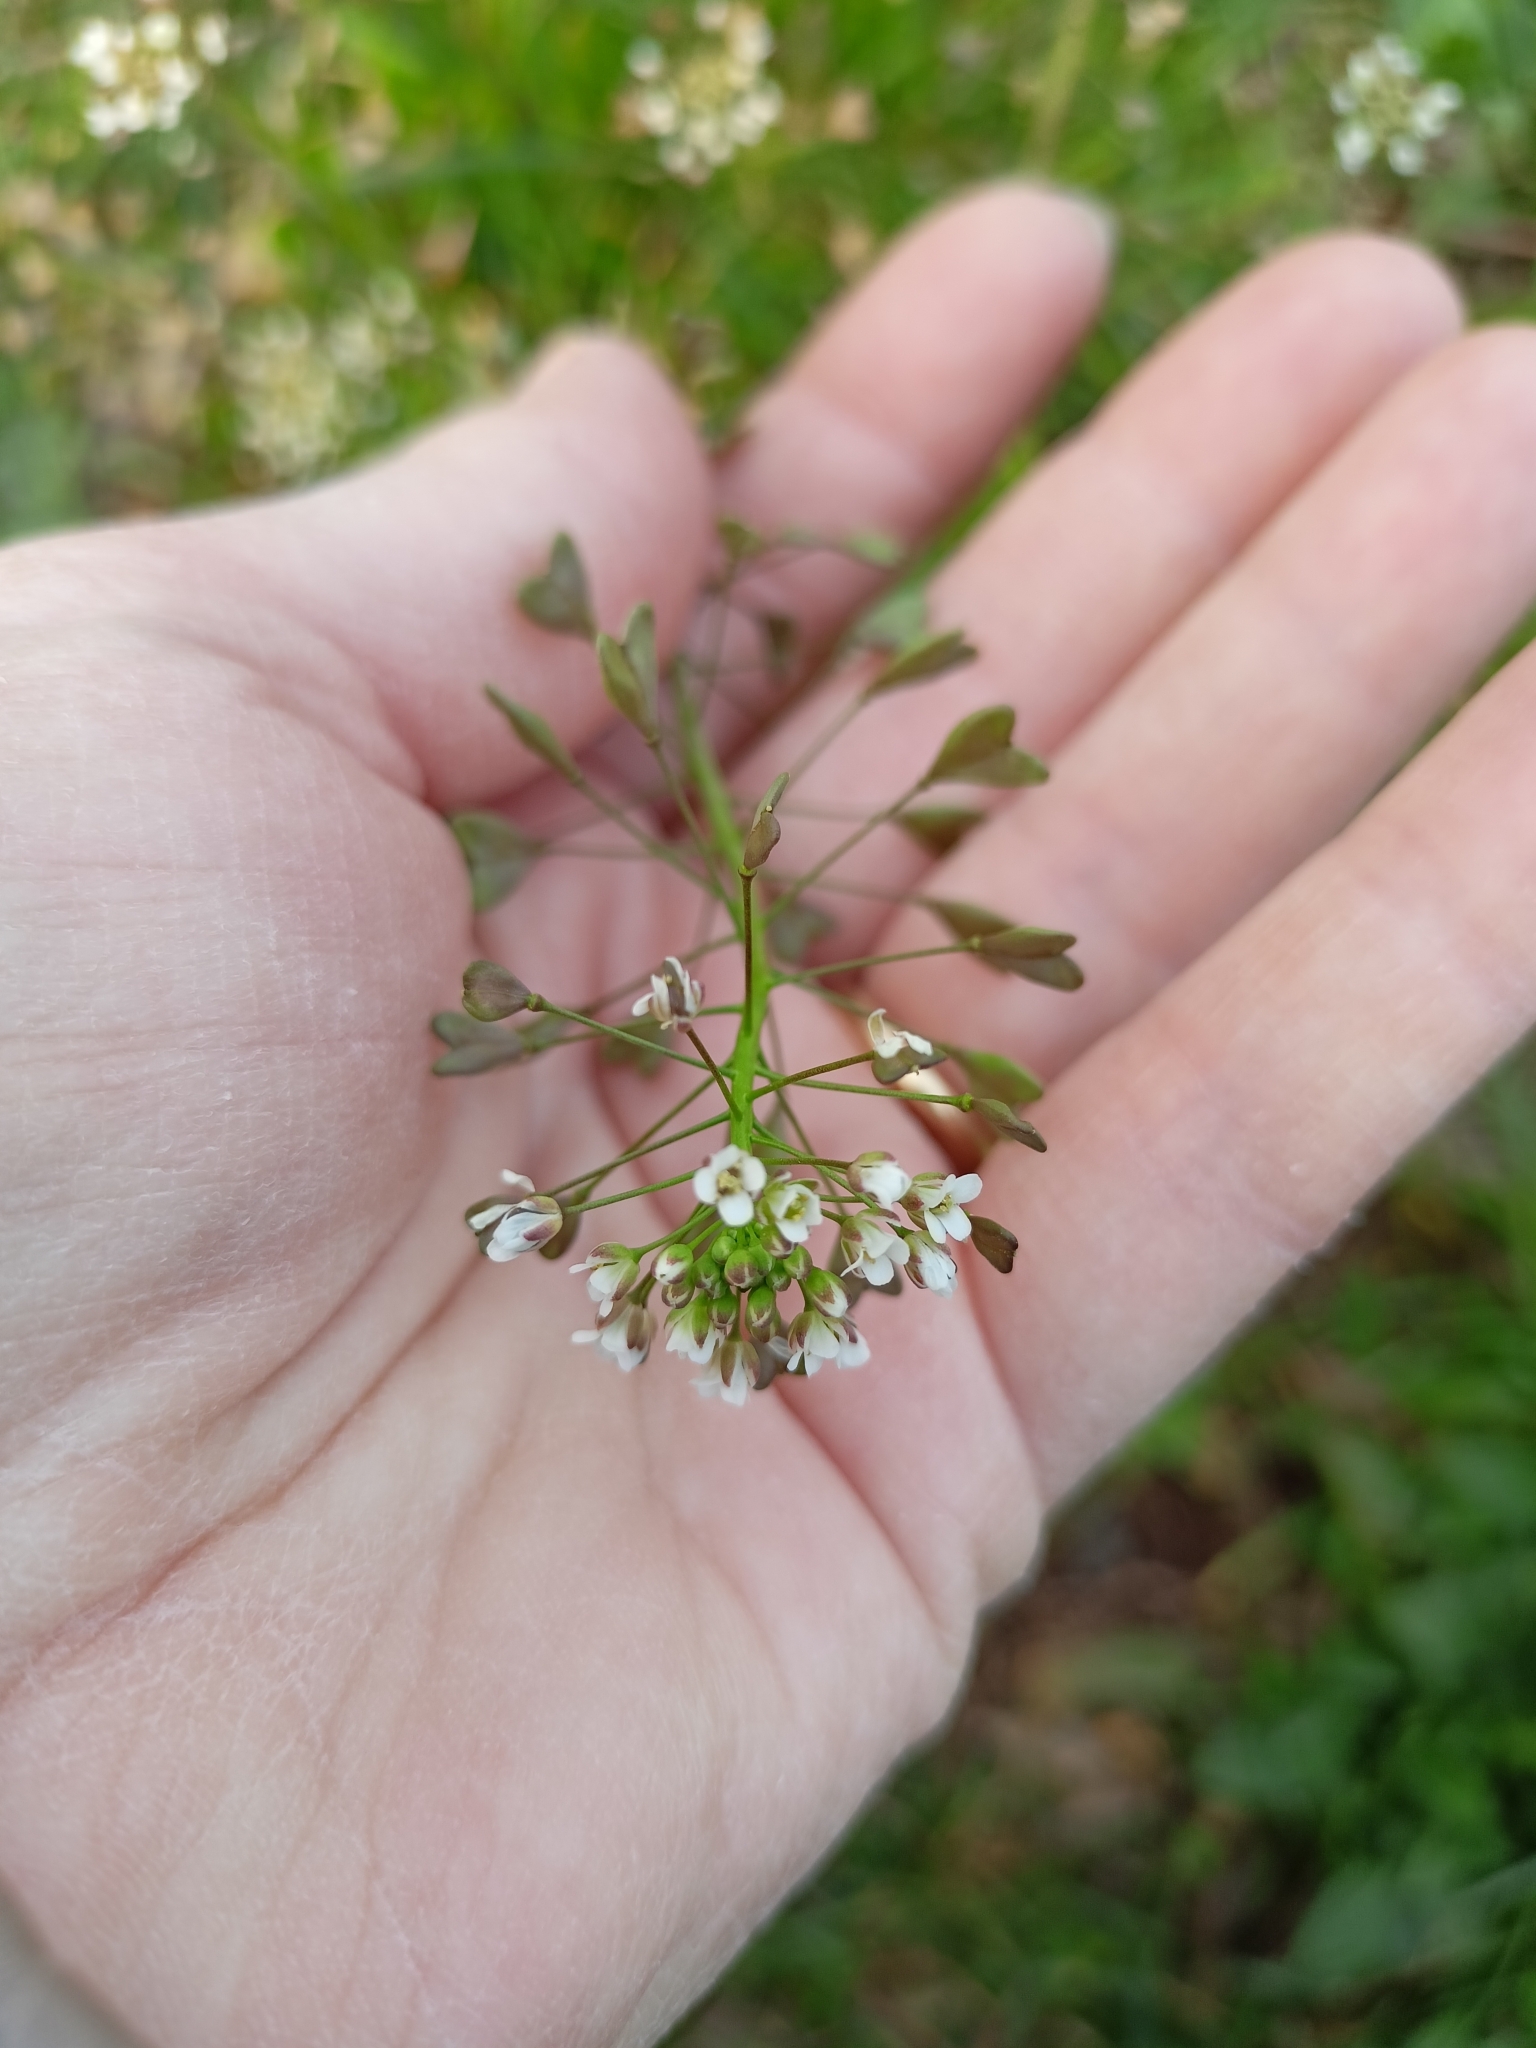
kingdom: Plantae
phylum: Tracheophyta
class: Magnoliopsida
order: Brassicales
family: Brassicaceae
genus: Capsella
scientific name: Capsella bursa-pastoris
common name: Shepherd's purse
